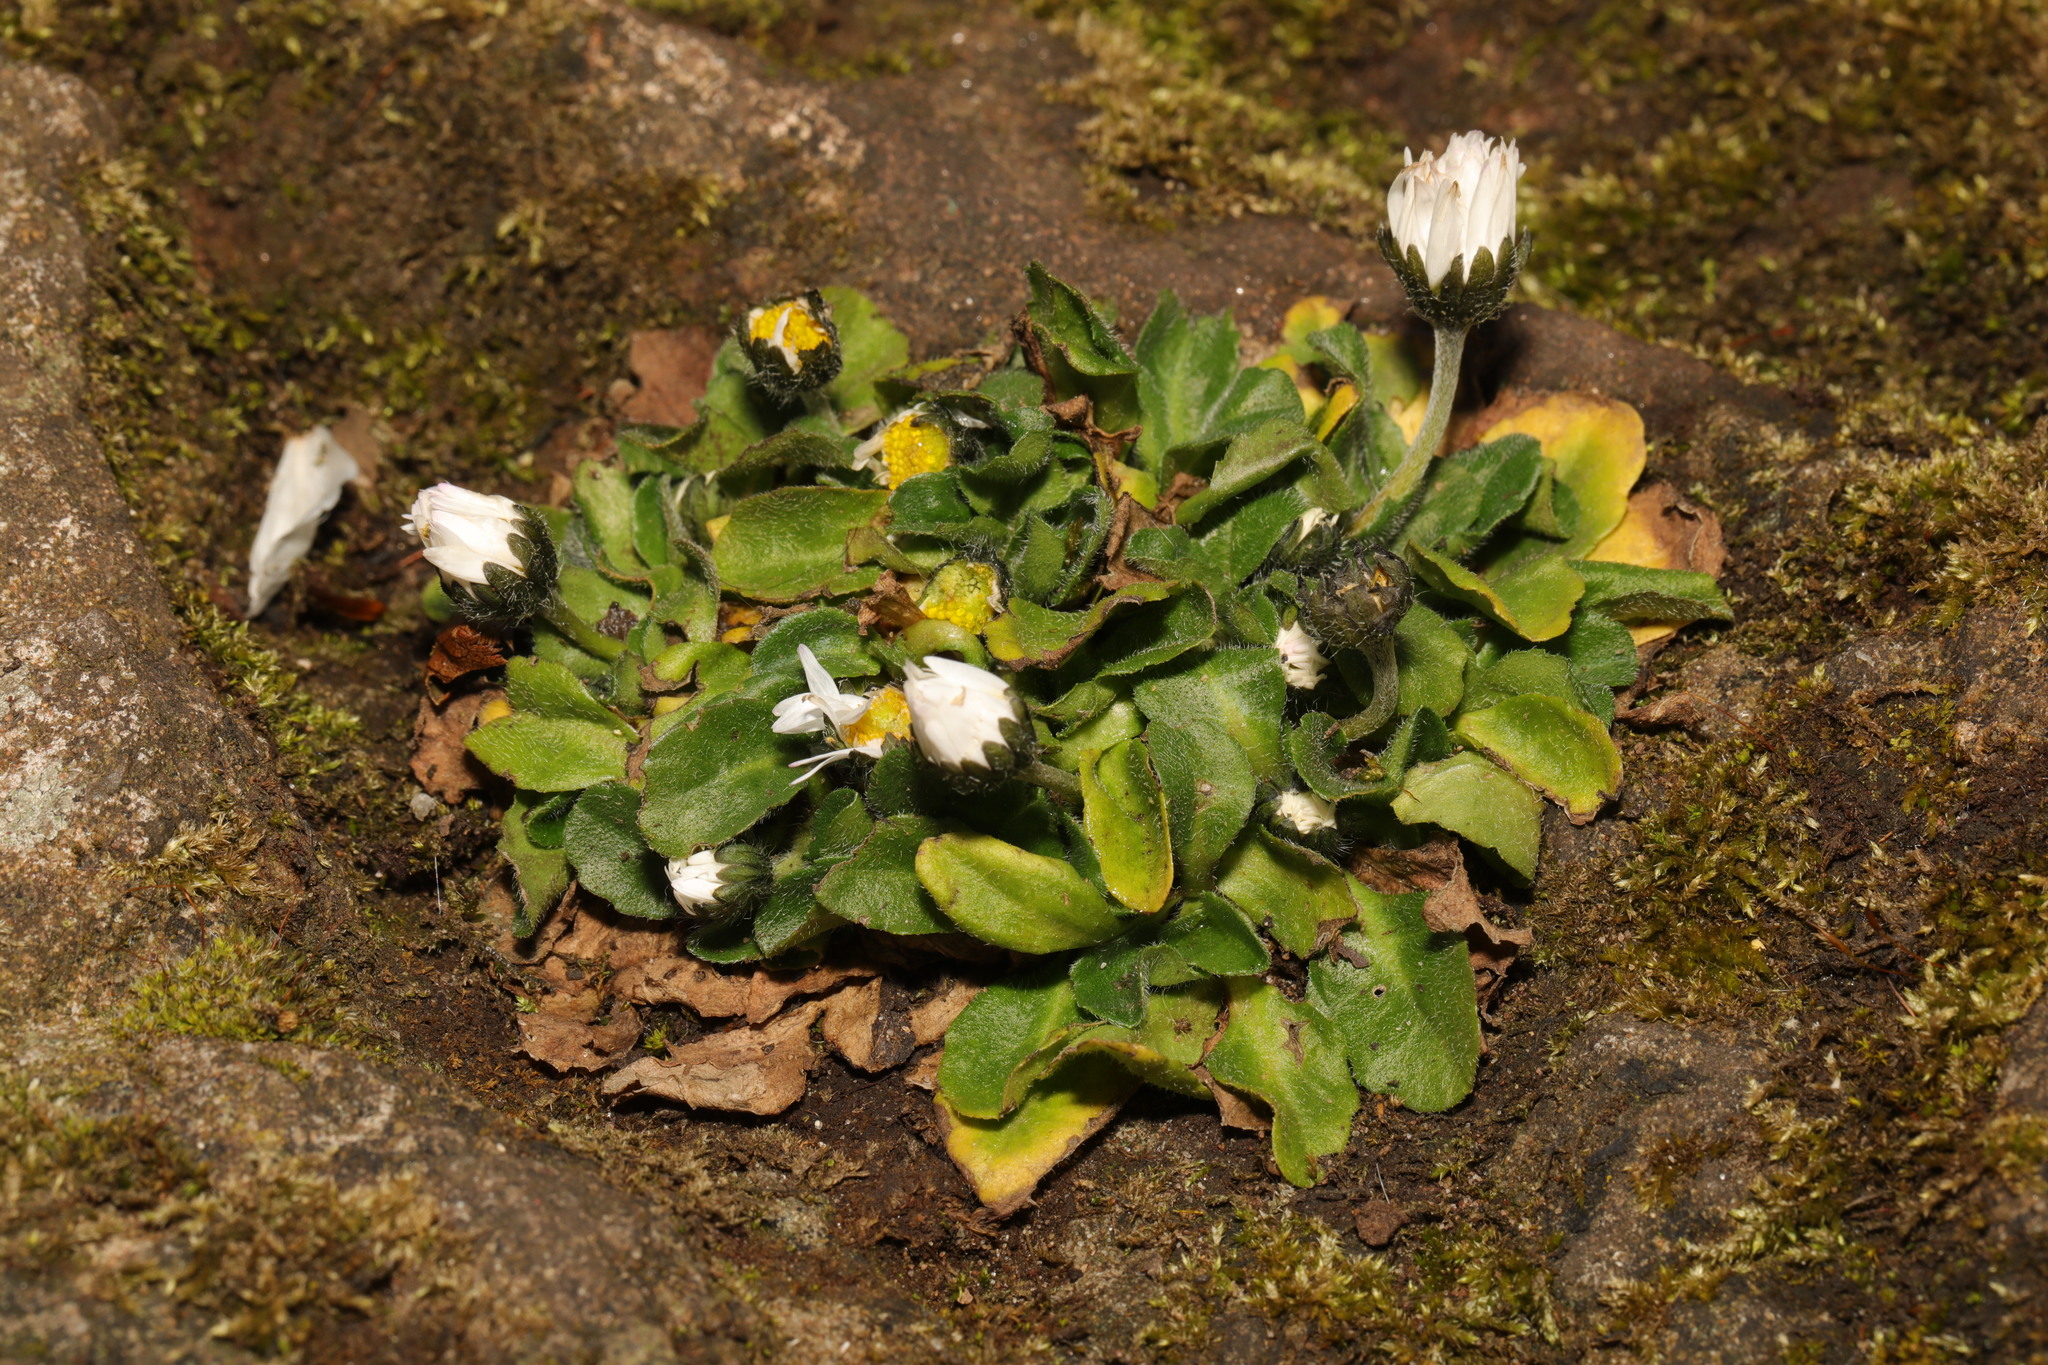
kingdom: Plantae
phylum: Tracheophyta
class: Magnoliopsida
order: Asterales
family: Asteraceae
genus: Bellis
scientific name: Bellis perennis
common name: Lawndaisy
